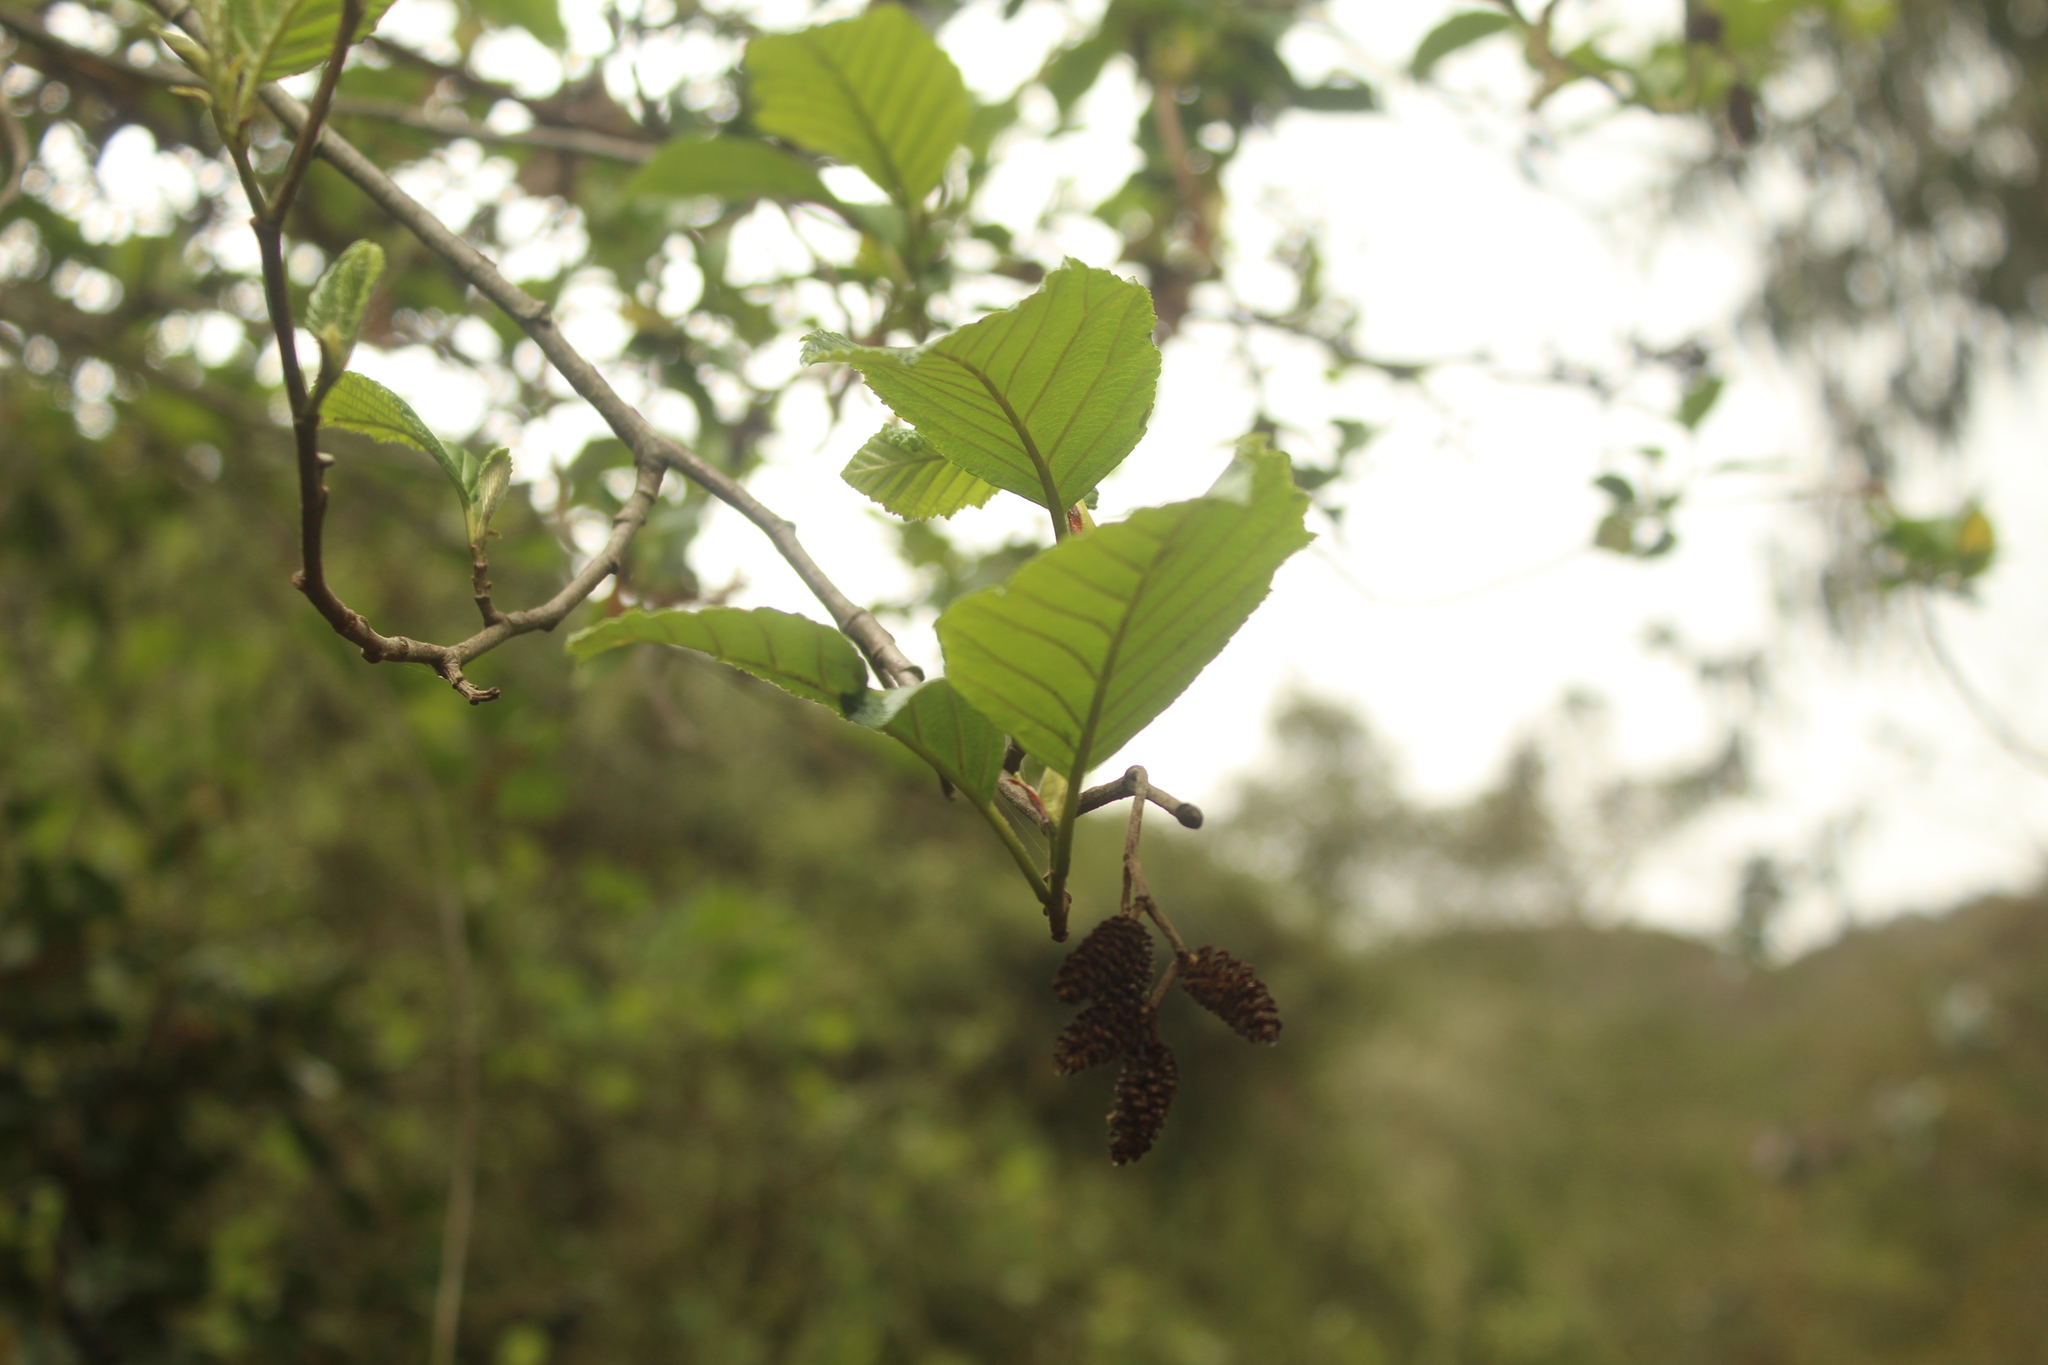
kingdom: Plantae
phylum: Tracheophyta
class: Magnoliopsida
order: Fagales
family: Betulaceae
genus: Alnus
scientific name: Alnus acuminata
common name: Alder
